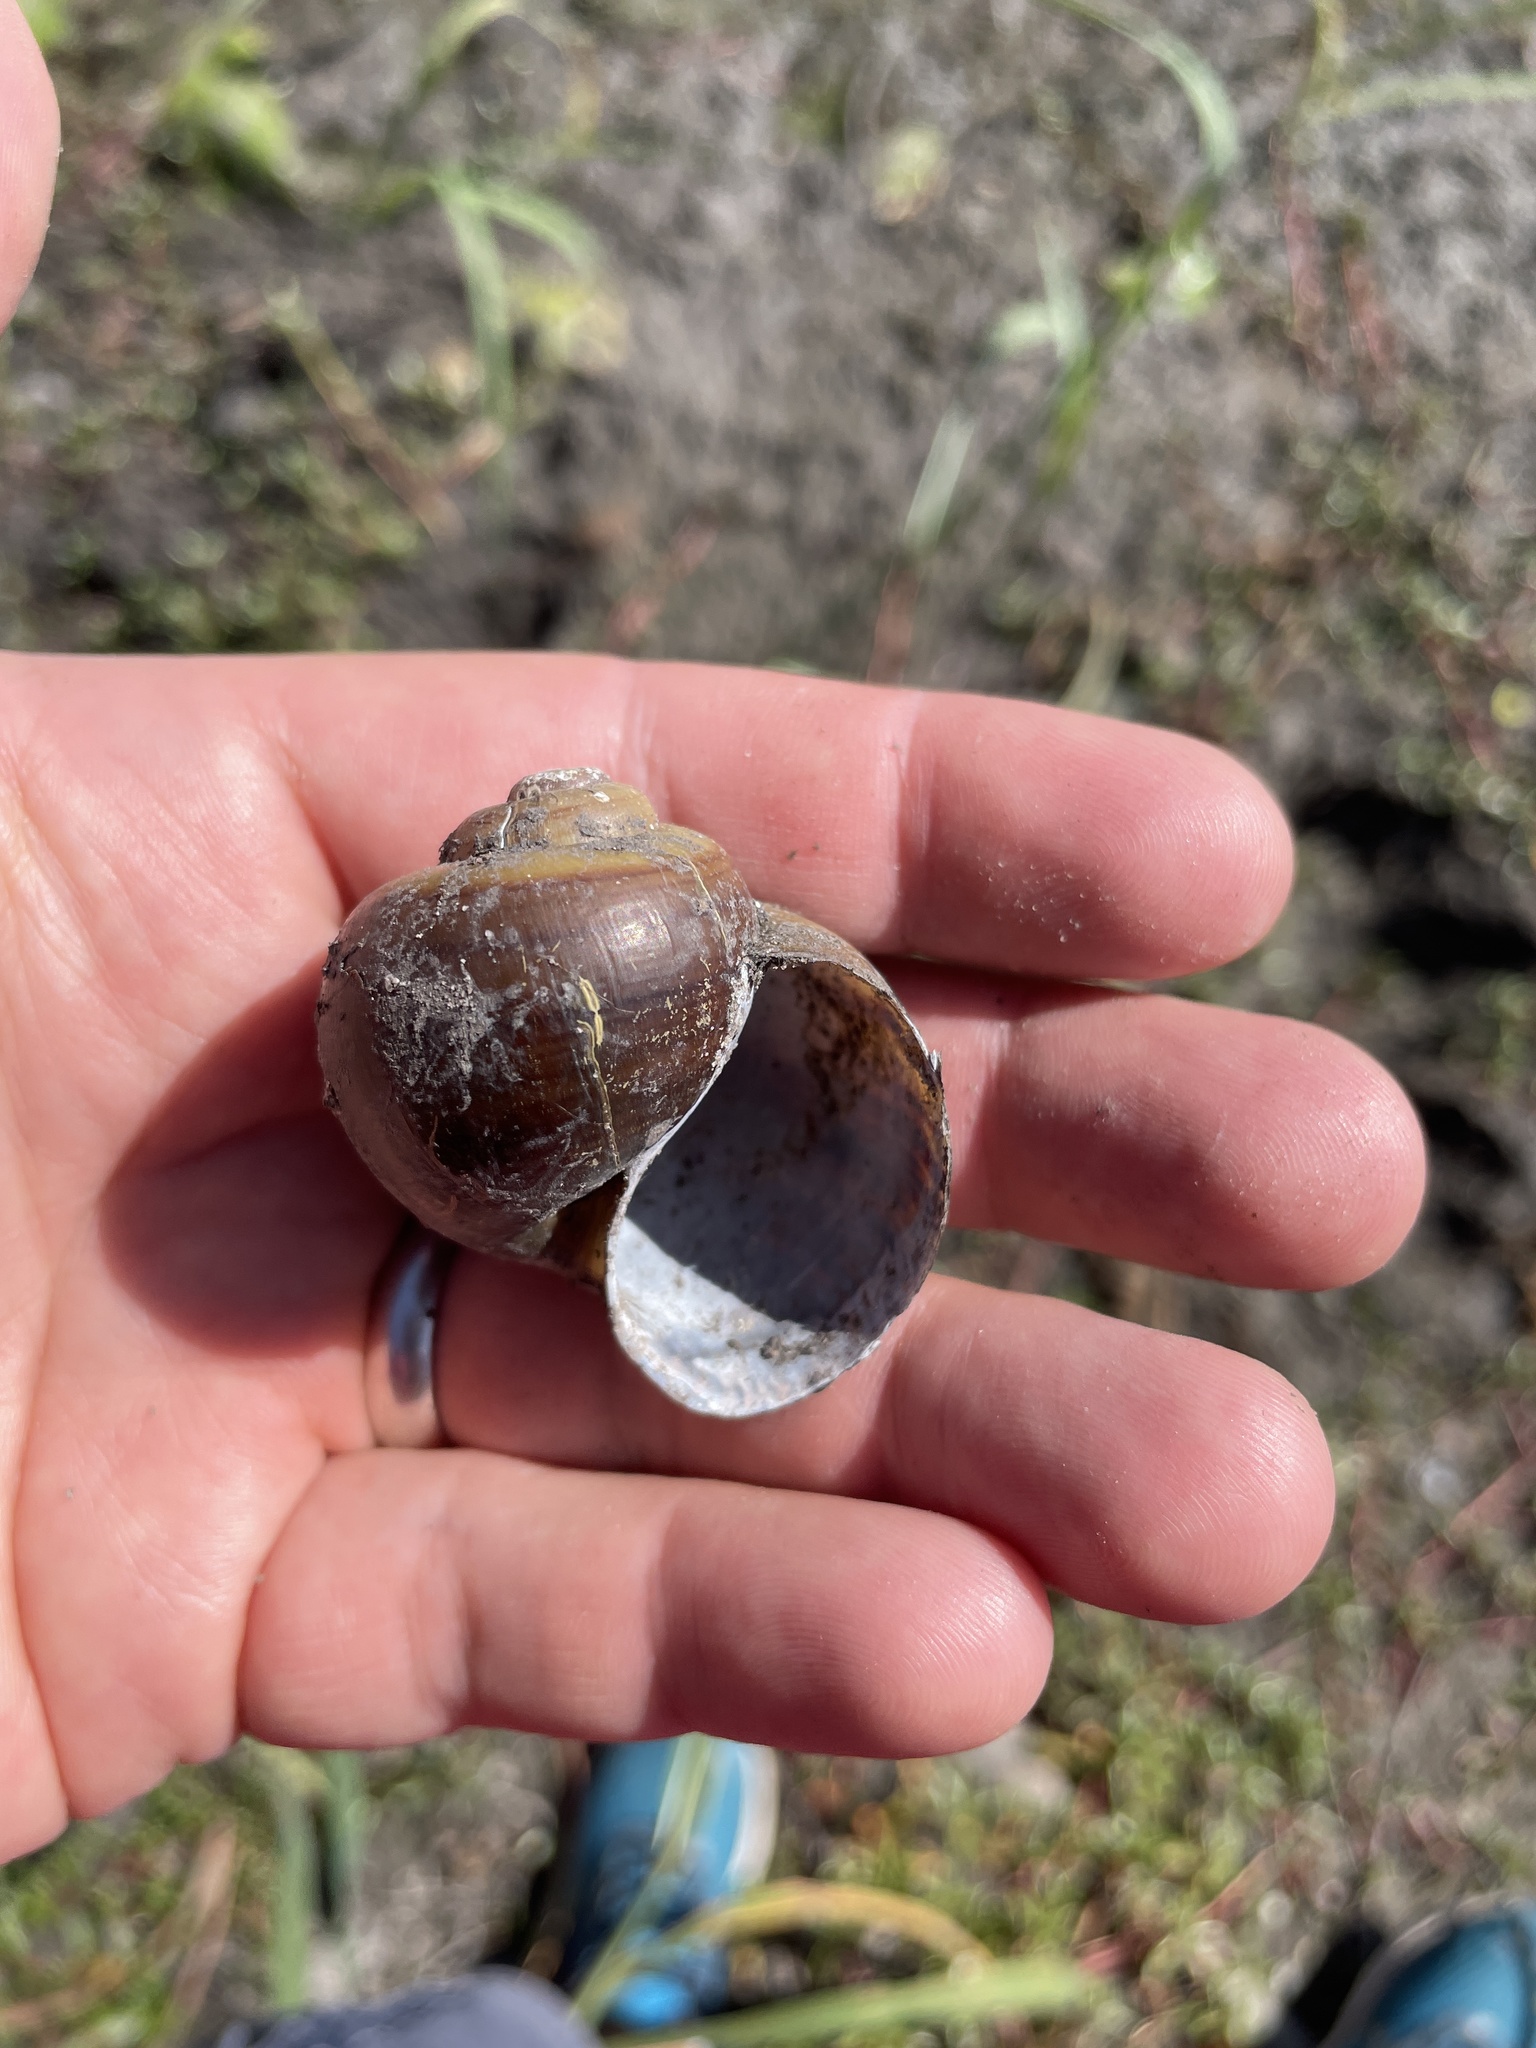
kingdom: Animalia
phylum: Mollusca
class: Gastropoda
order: Architaenioglossa
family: Ampullariidae
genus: Pila
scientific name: Pila occidentalis
